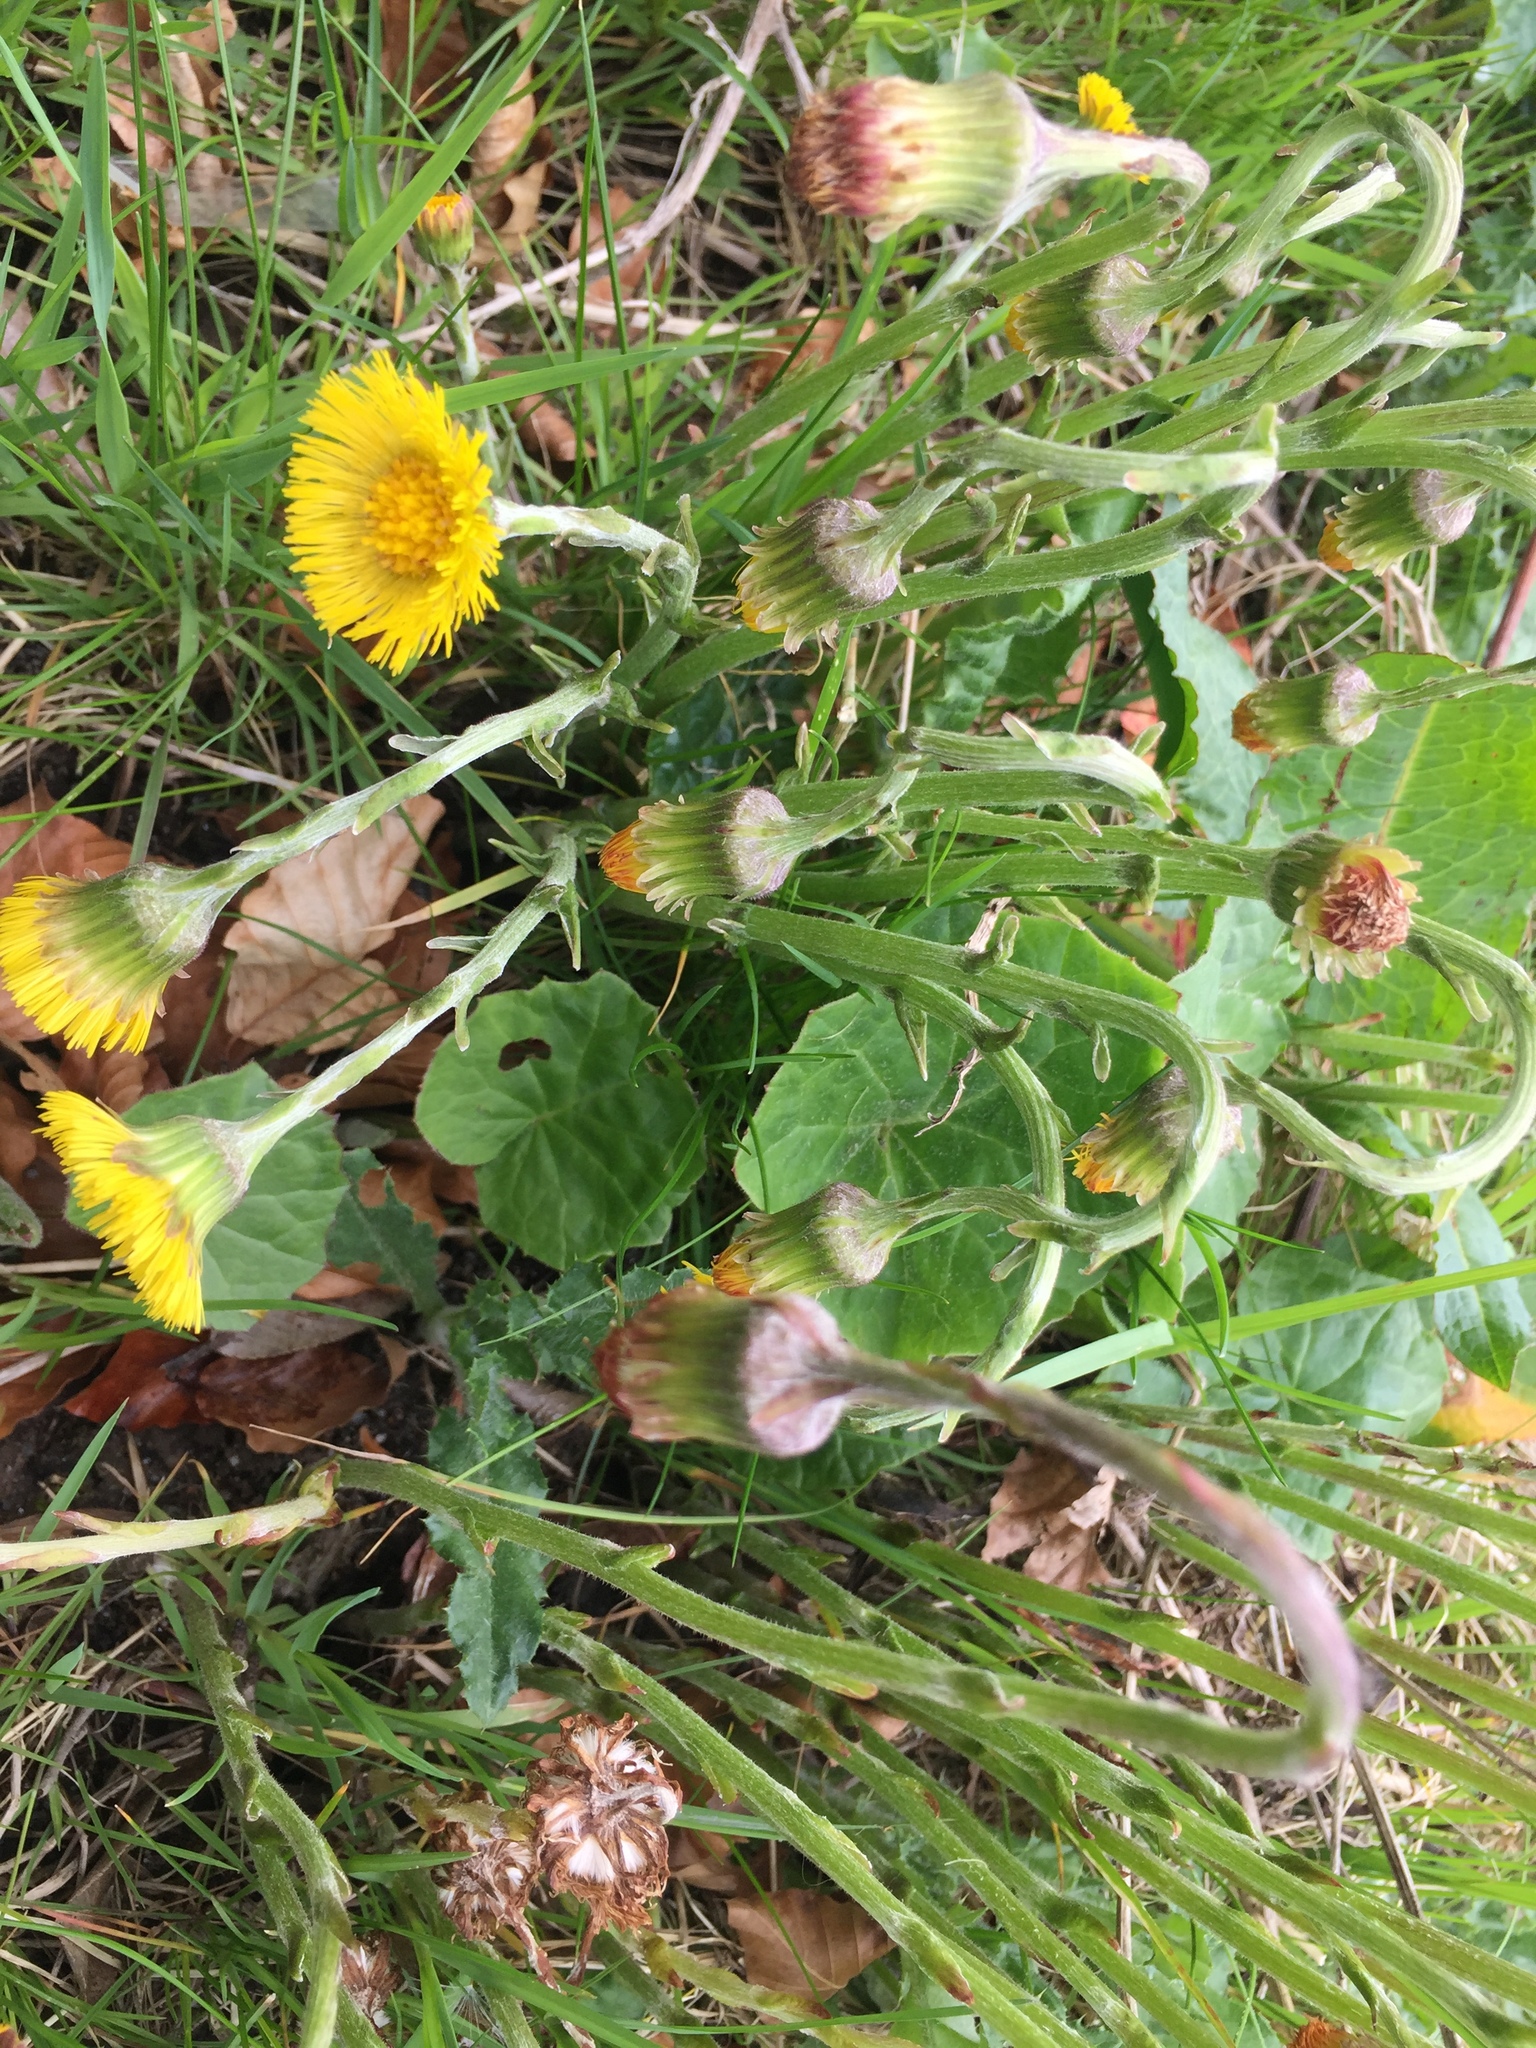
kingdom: Plantae
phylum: Tracheophyta
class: Magnoliopsida
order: Asterales
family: Asteraceae
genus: Tussilago
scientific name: Tussilago farfara
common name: Coltsfoot
